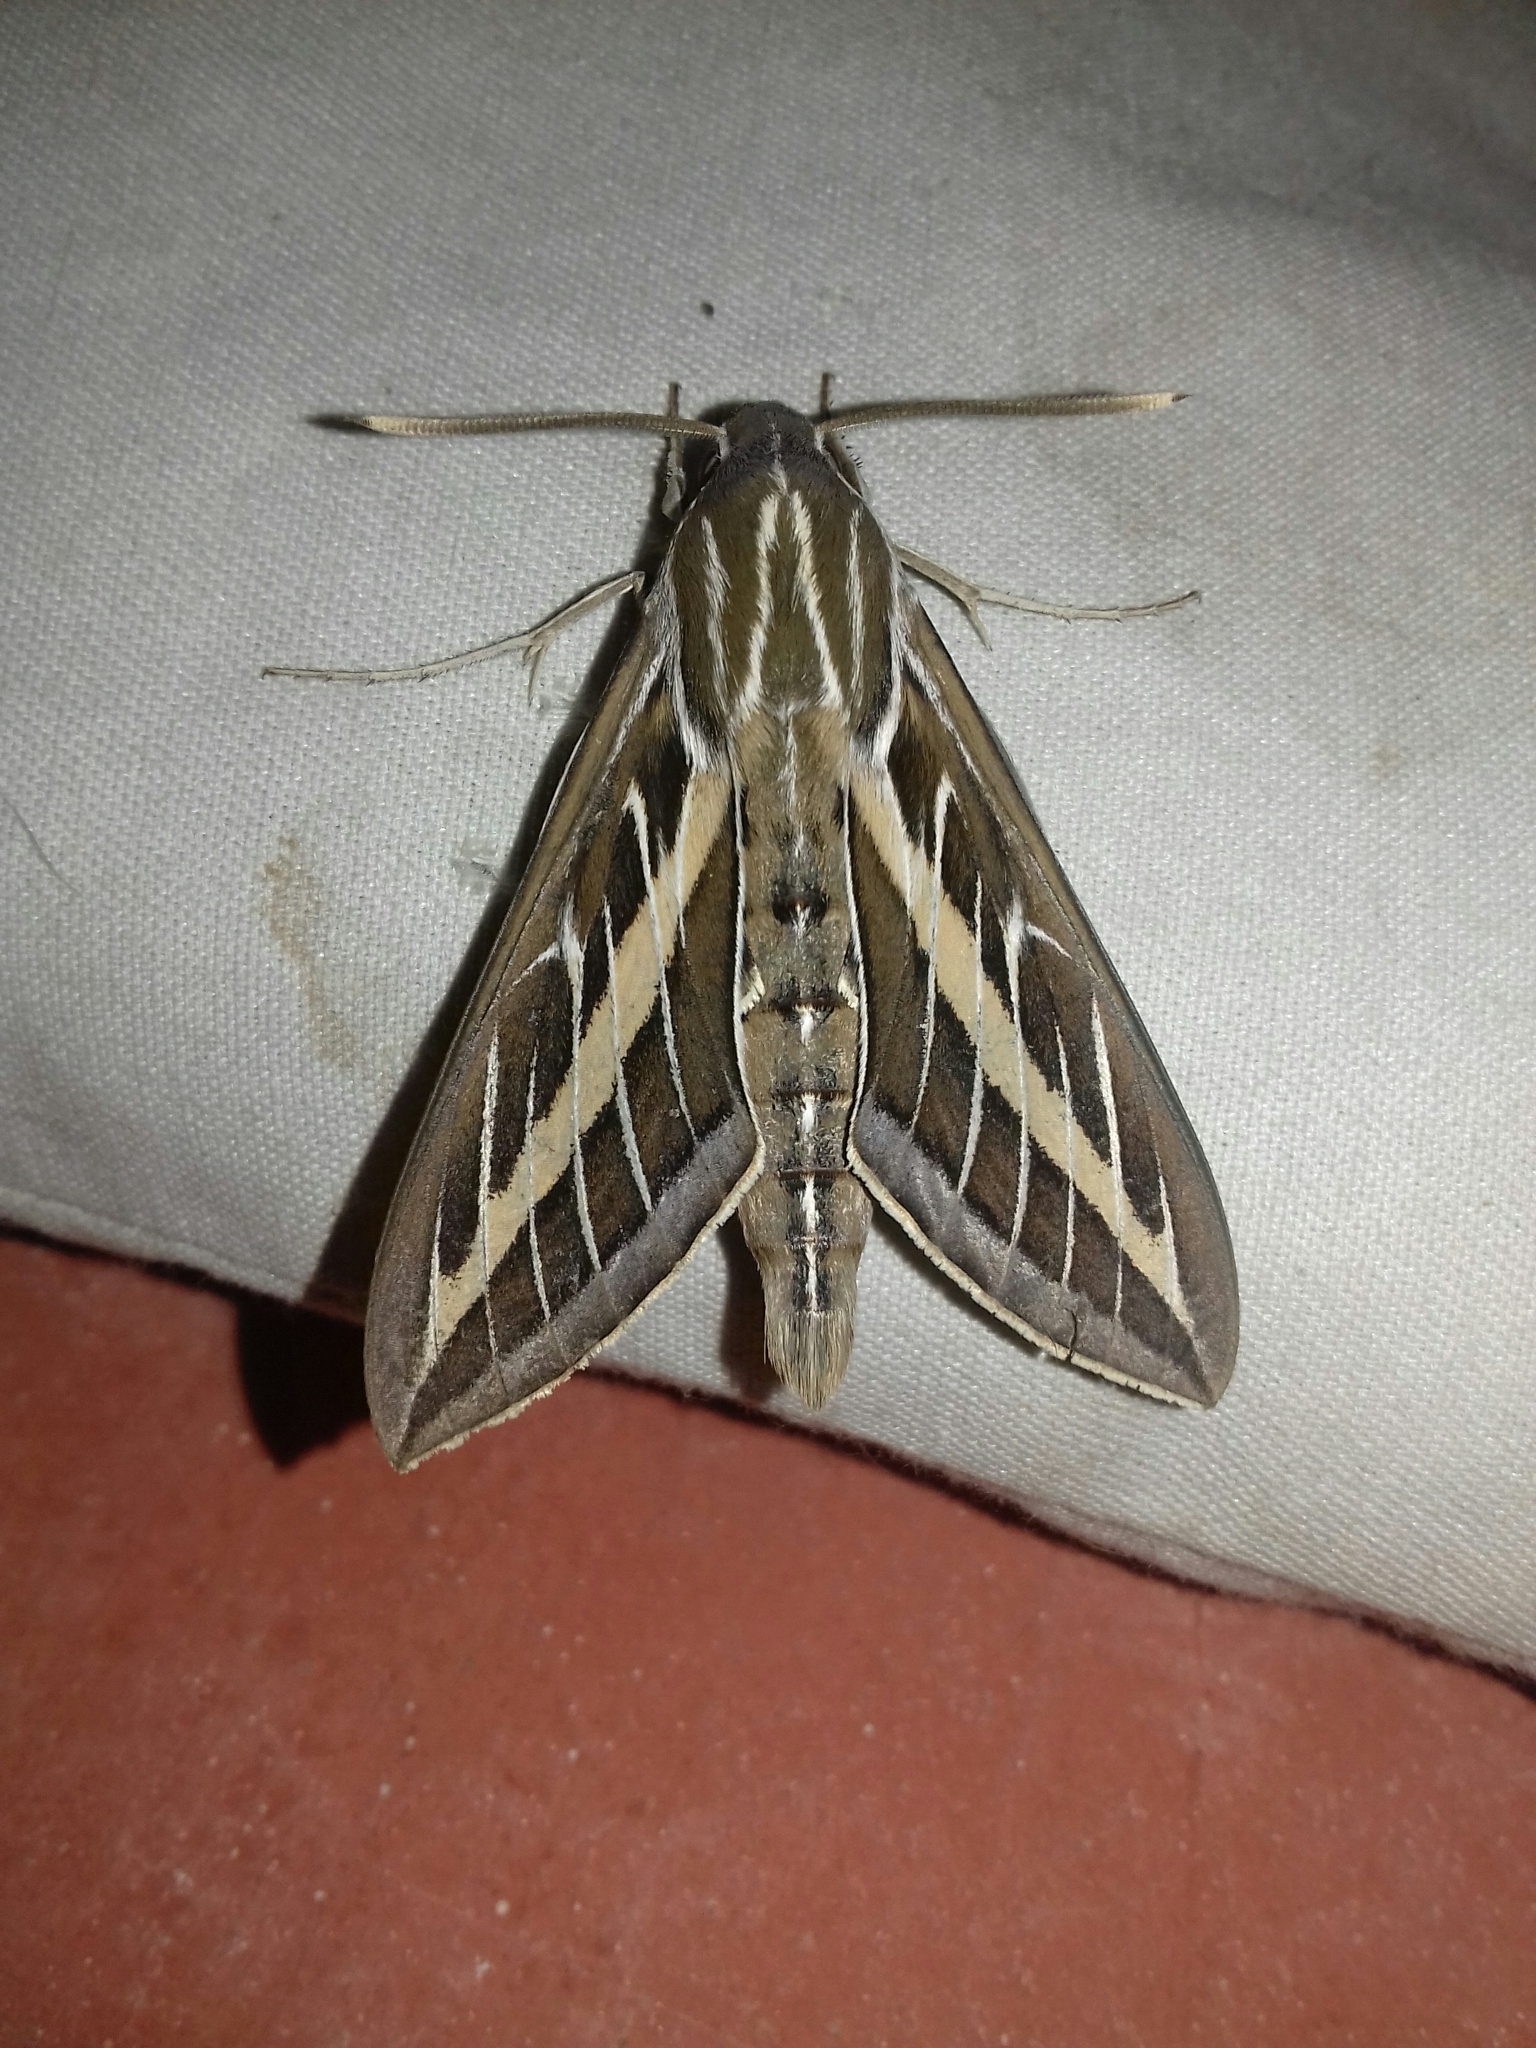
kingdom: Animalia
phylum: Arthropoda
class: Insecta
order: Lepidoptera
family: Sphingidae
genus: Hyles
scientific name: Hyles lineata
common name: White-lined sphinx
